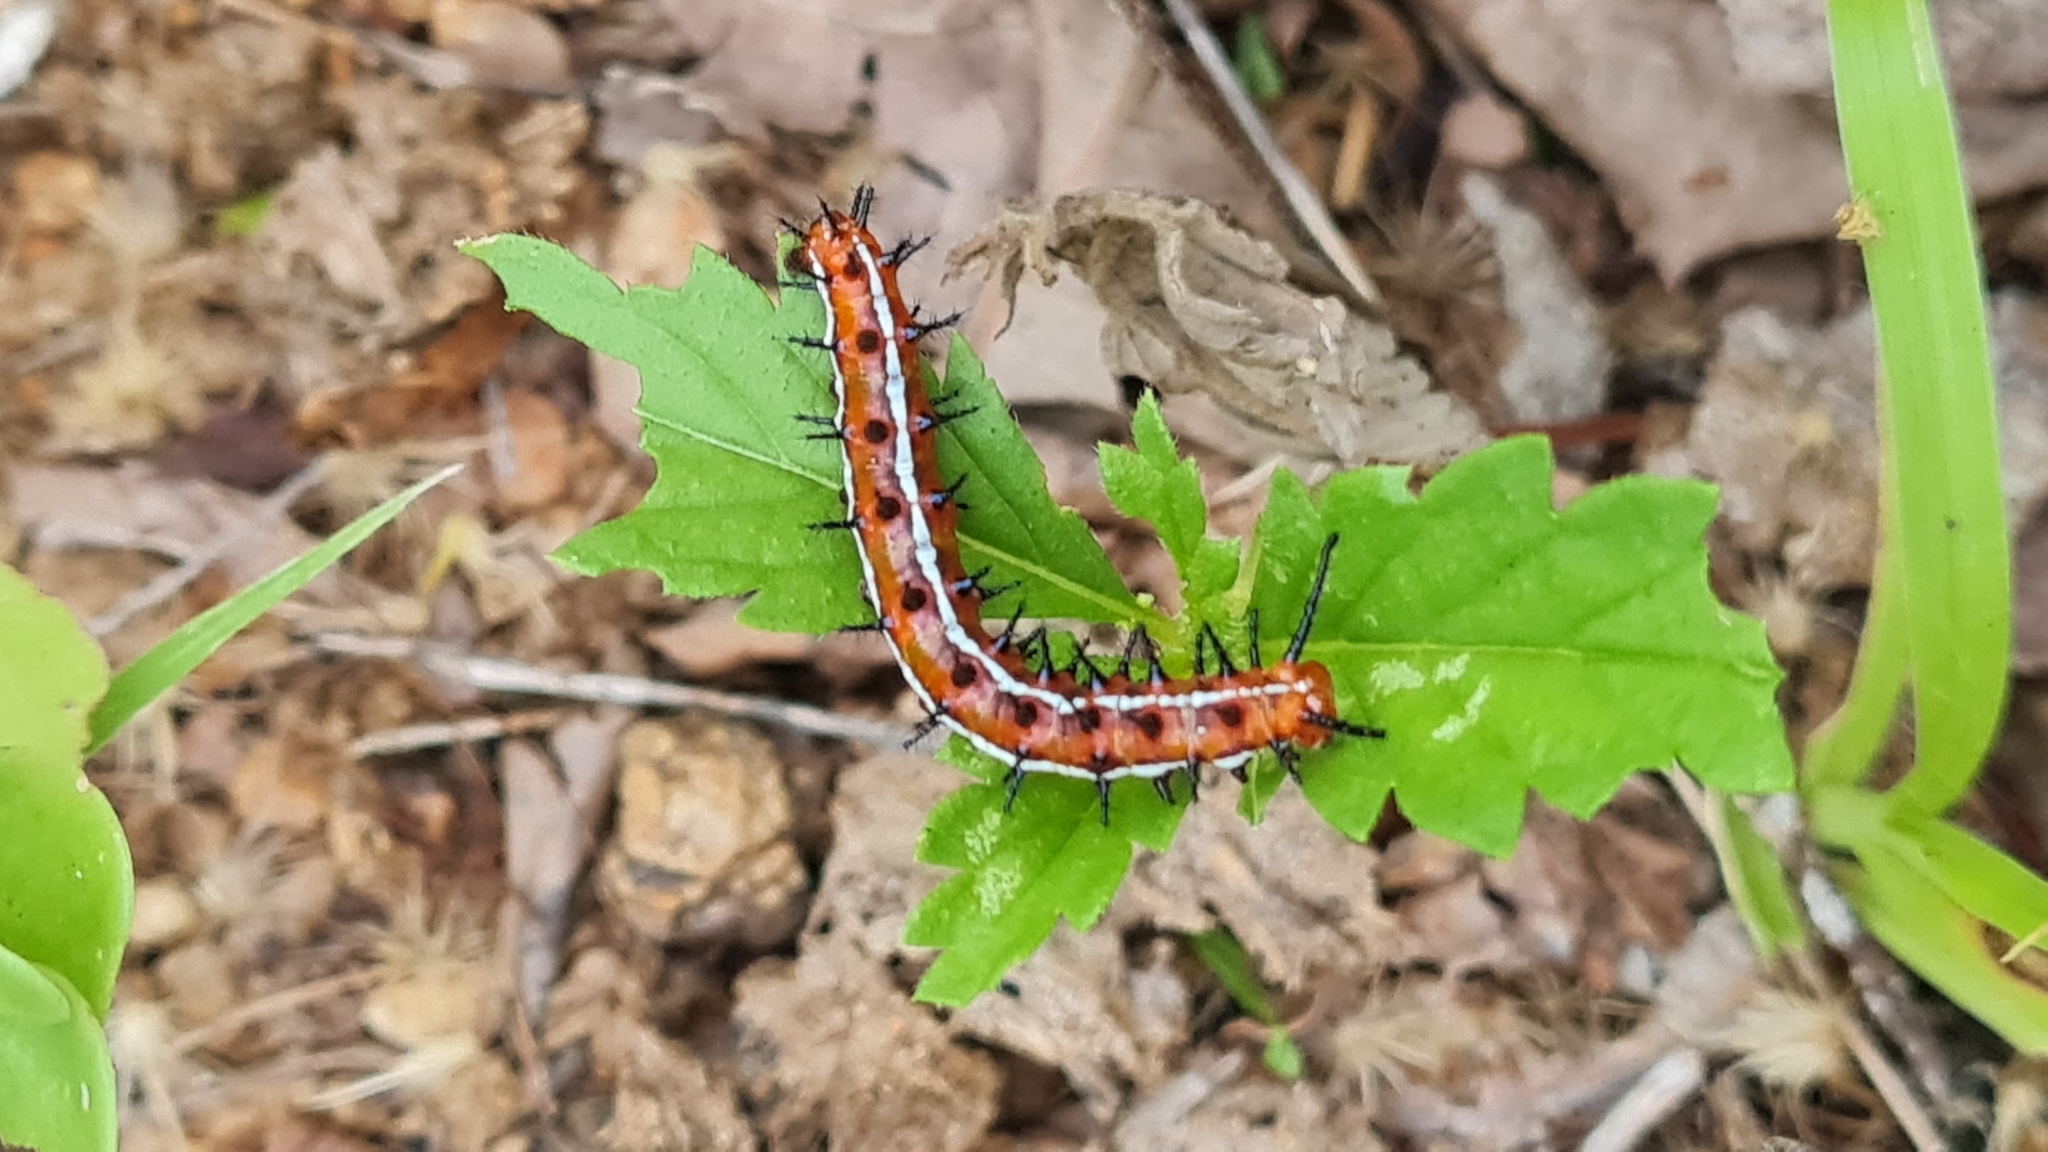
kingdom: Animalia
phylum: Arthropoda
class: Insecta
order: Lepidoptera
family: Nymphalidae
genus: Euptoieta
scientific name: Euptoieta hegesia
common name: Mexican fritillary
